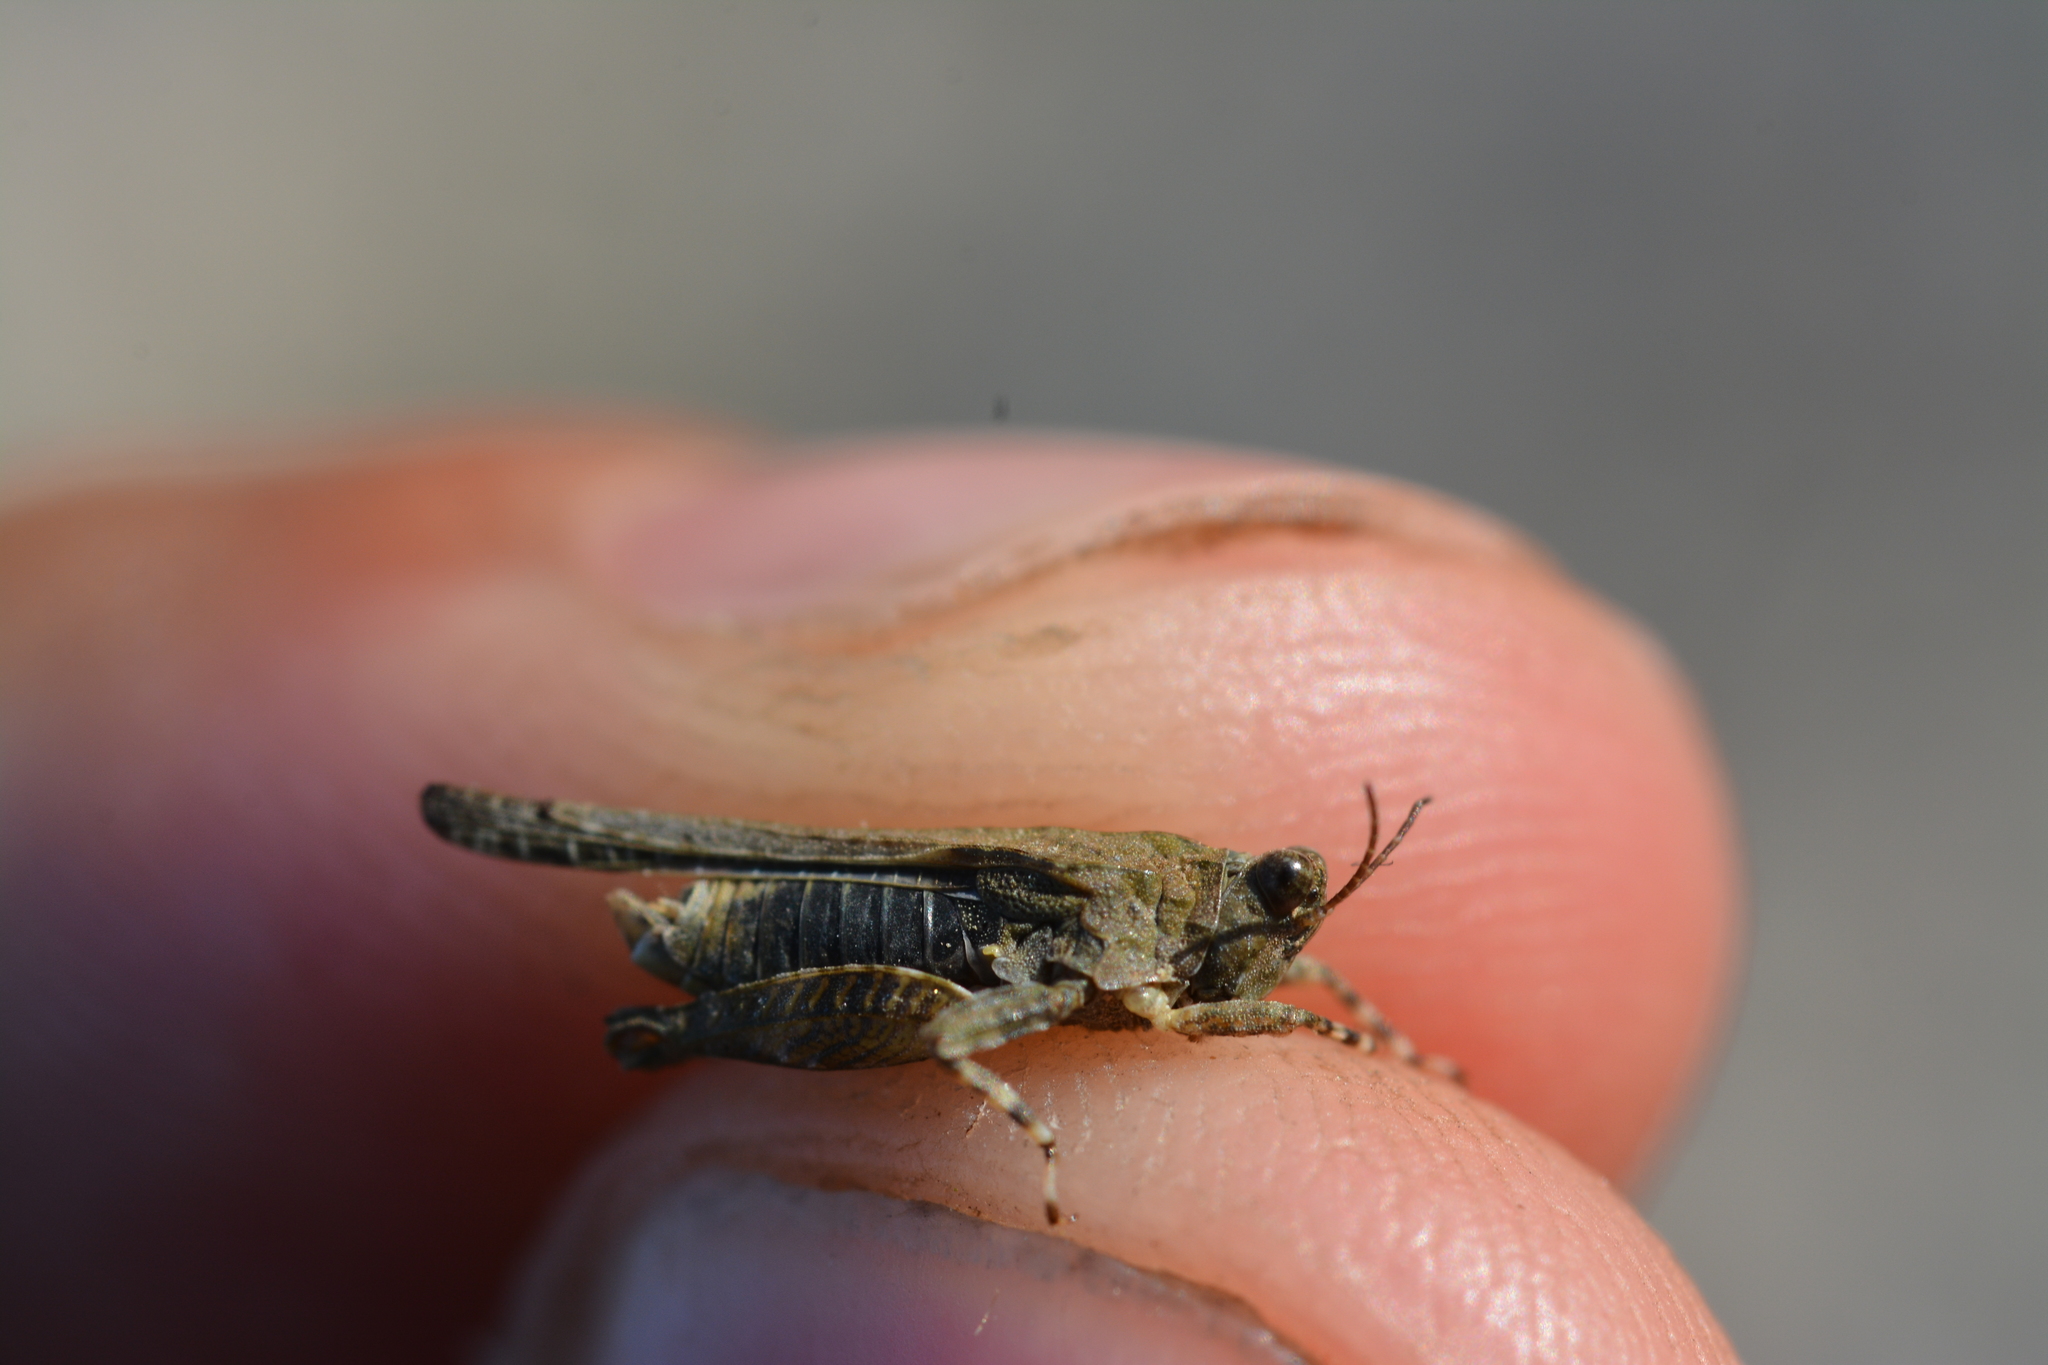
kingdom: Animalia
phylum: Arthropoda
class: Insecta
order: Orthoptera
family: Tetrigidae
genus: Paratettix
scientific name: Paratettix meridionalis
